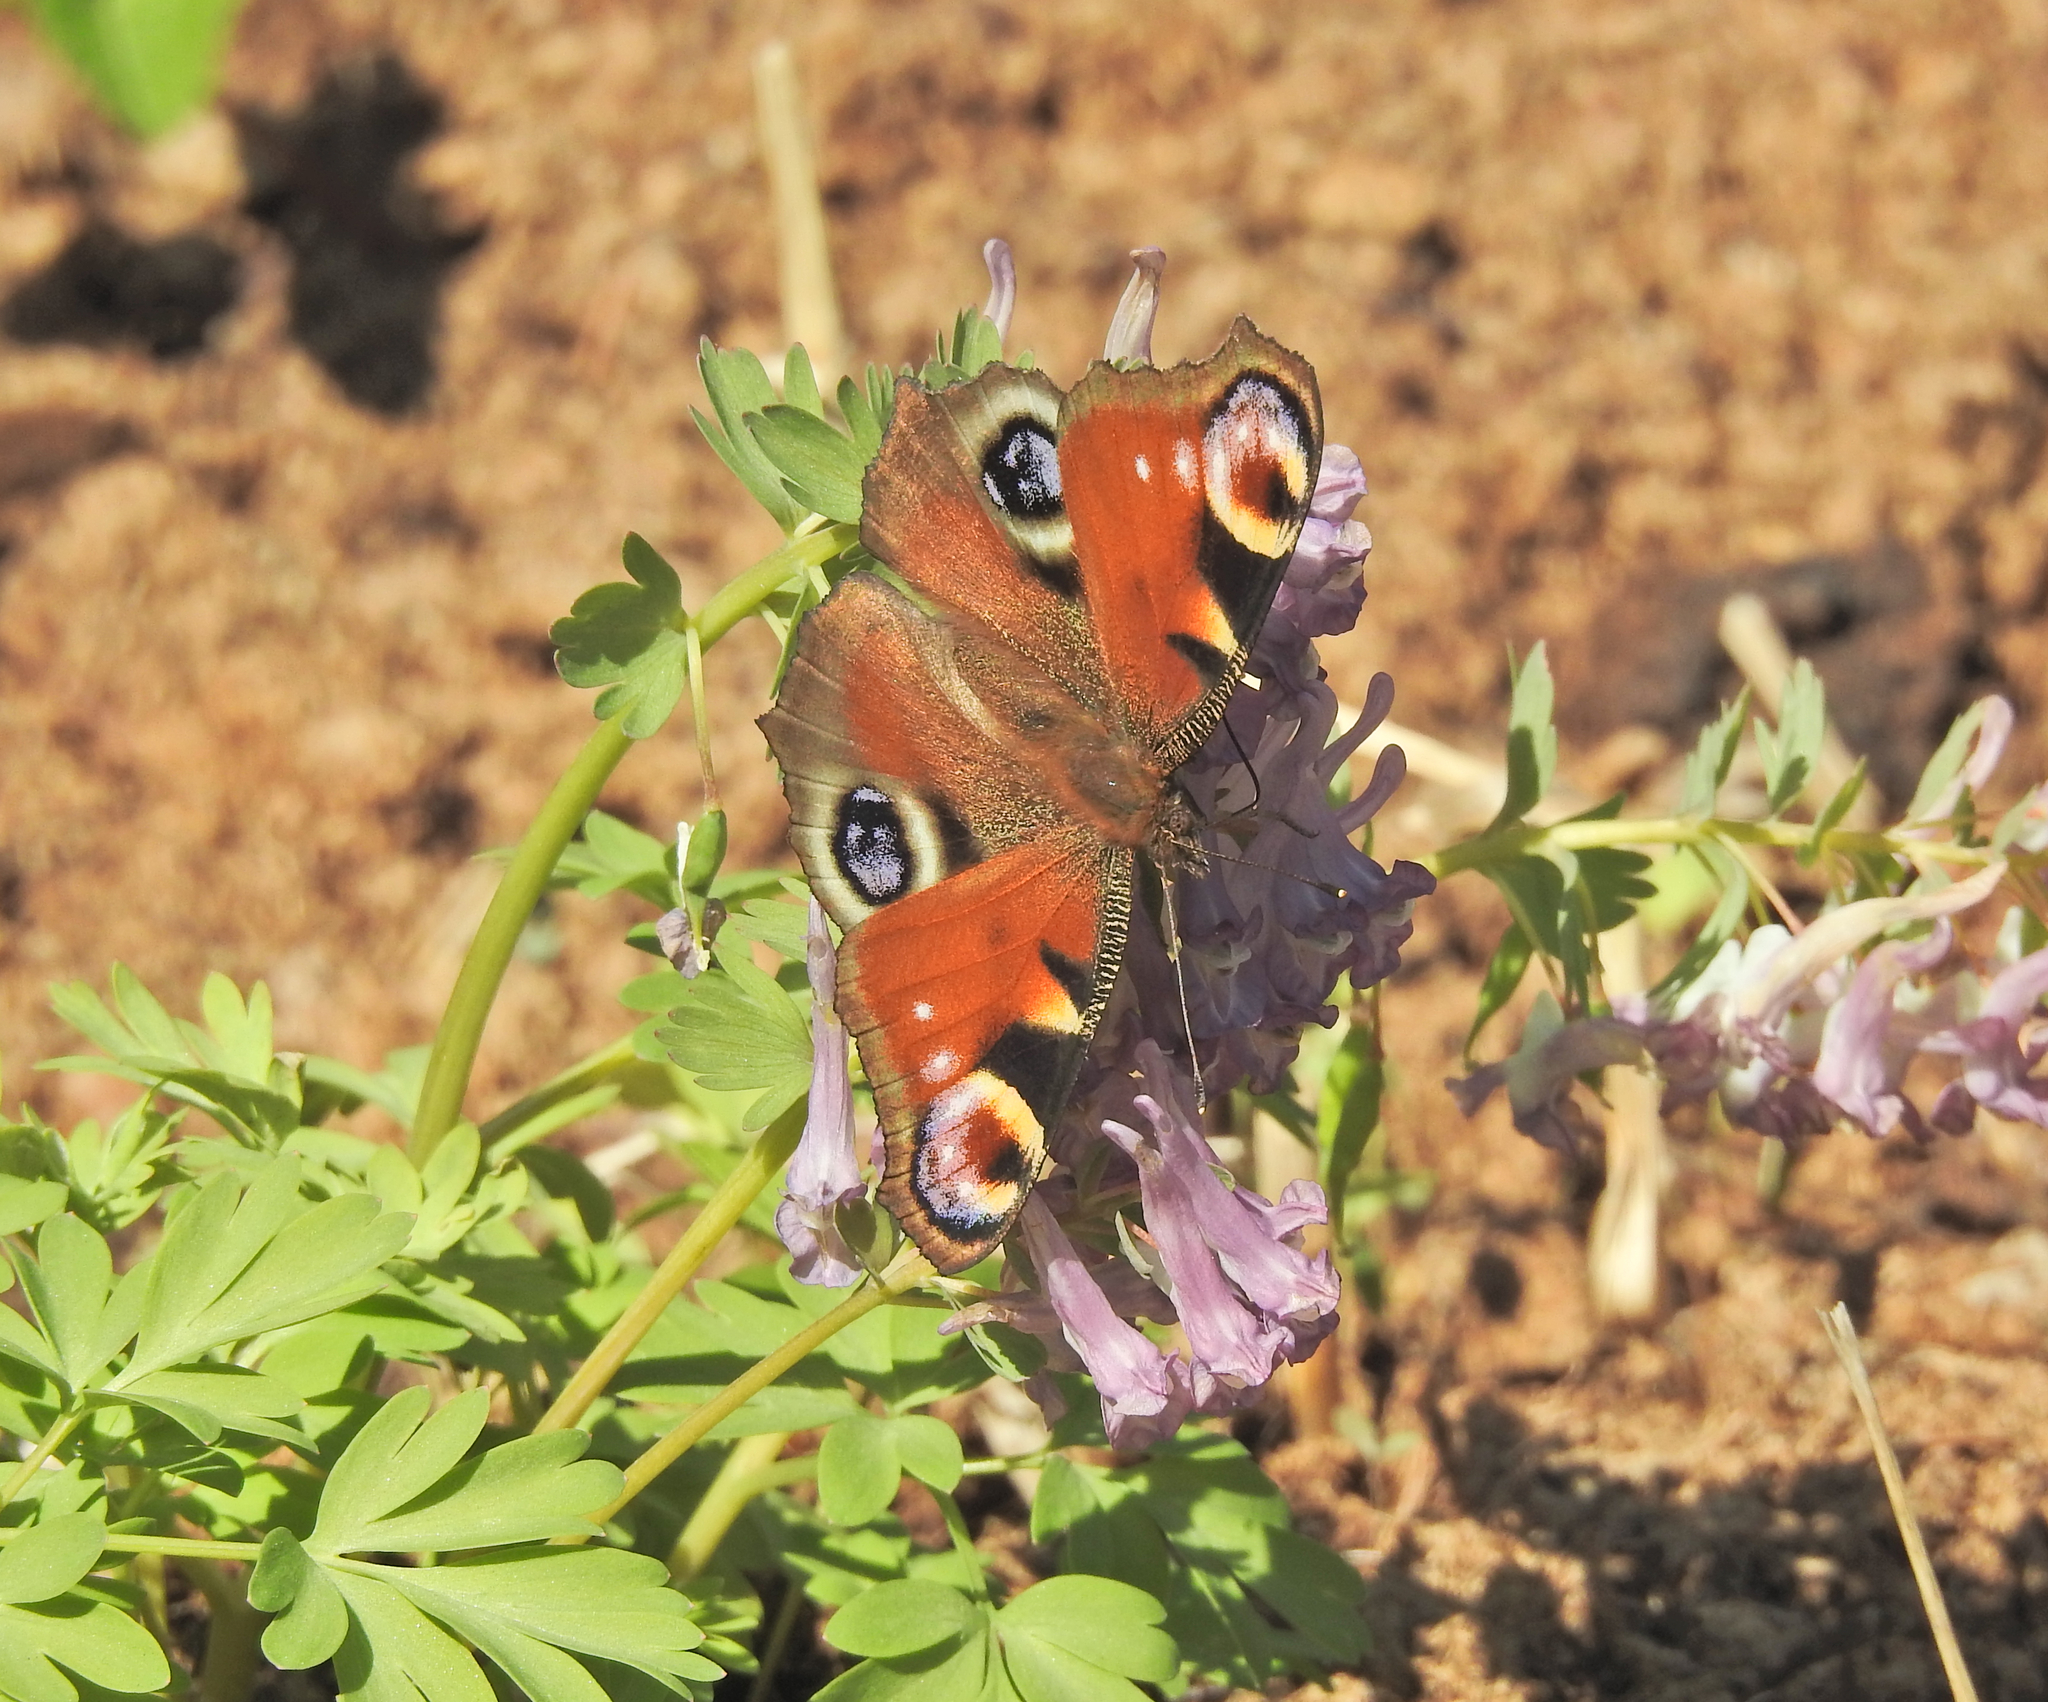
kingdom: Animalia
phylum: Arthropoda
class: Insecta
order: Lepidoptera
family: Nymphalidae
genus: Aglais
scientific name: Aglais io
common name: Peacock
